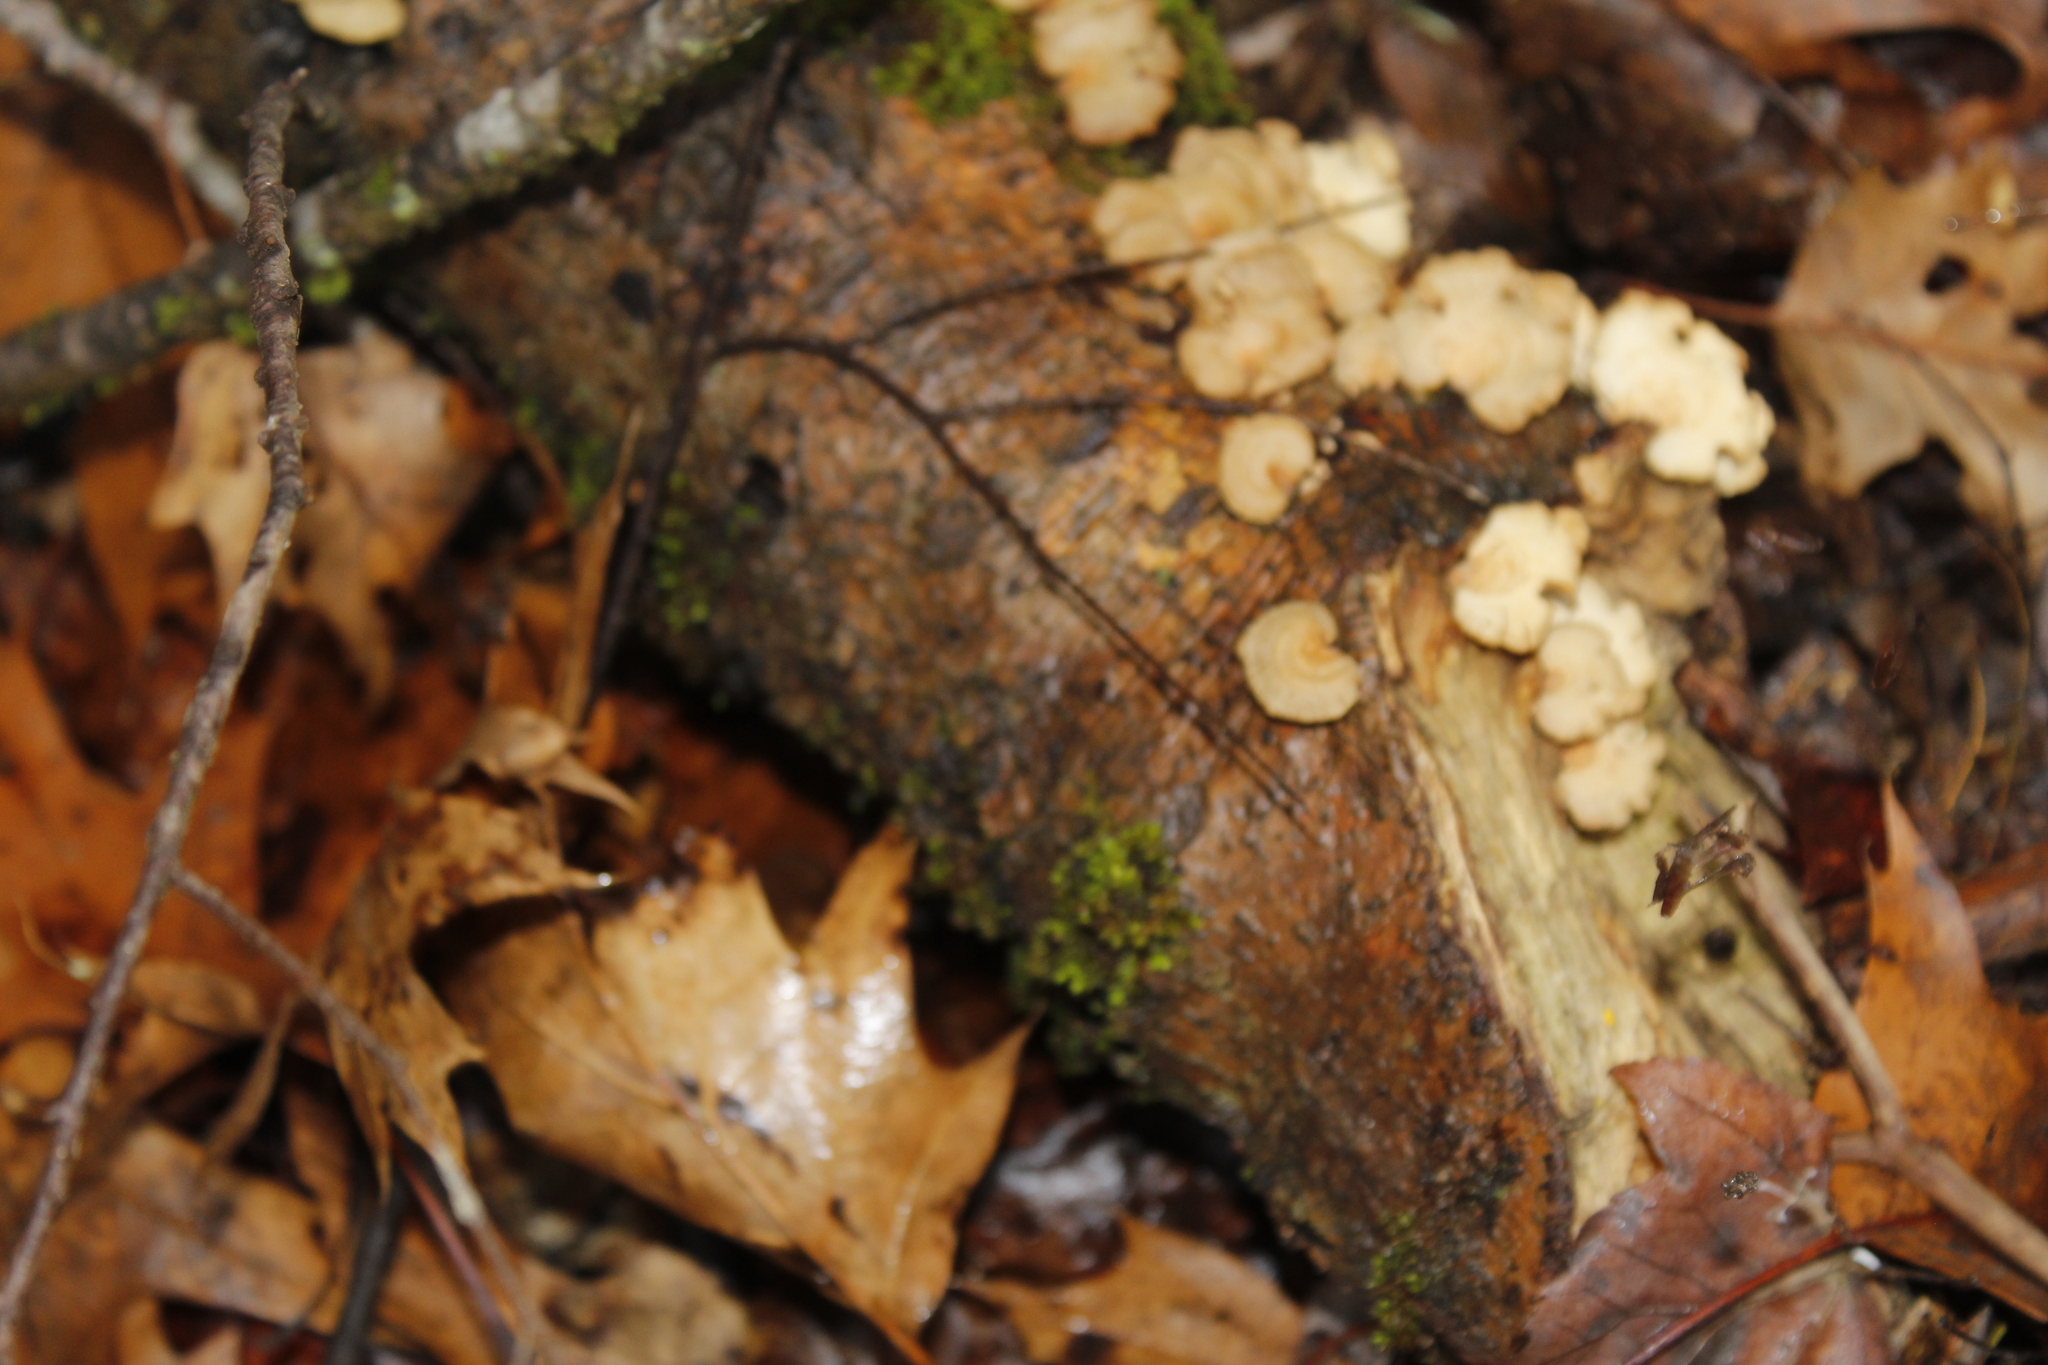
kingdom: Fungi
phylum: Basidiomycota
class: Agaricomycetes
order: Agaricales
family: Mycenaceae
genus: Panellus
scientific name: Panellus stipticus
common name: Bitter oysterling
